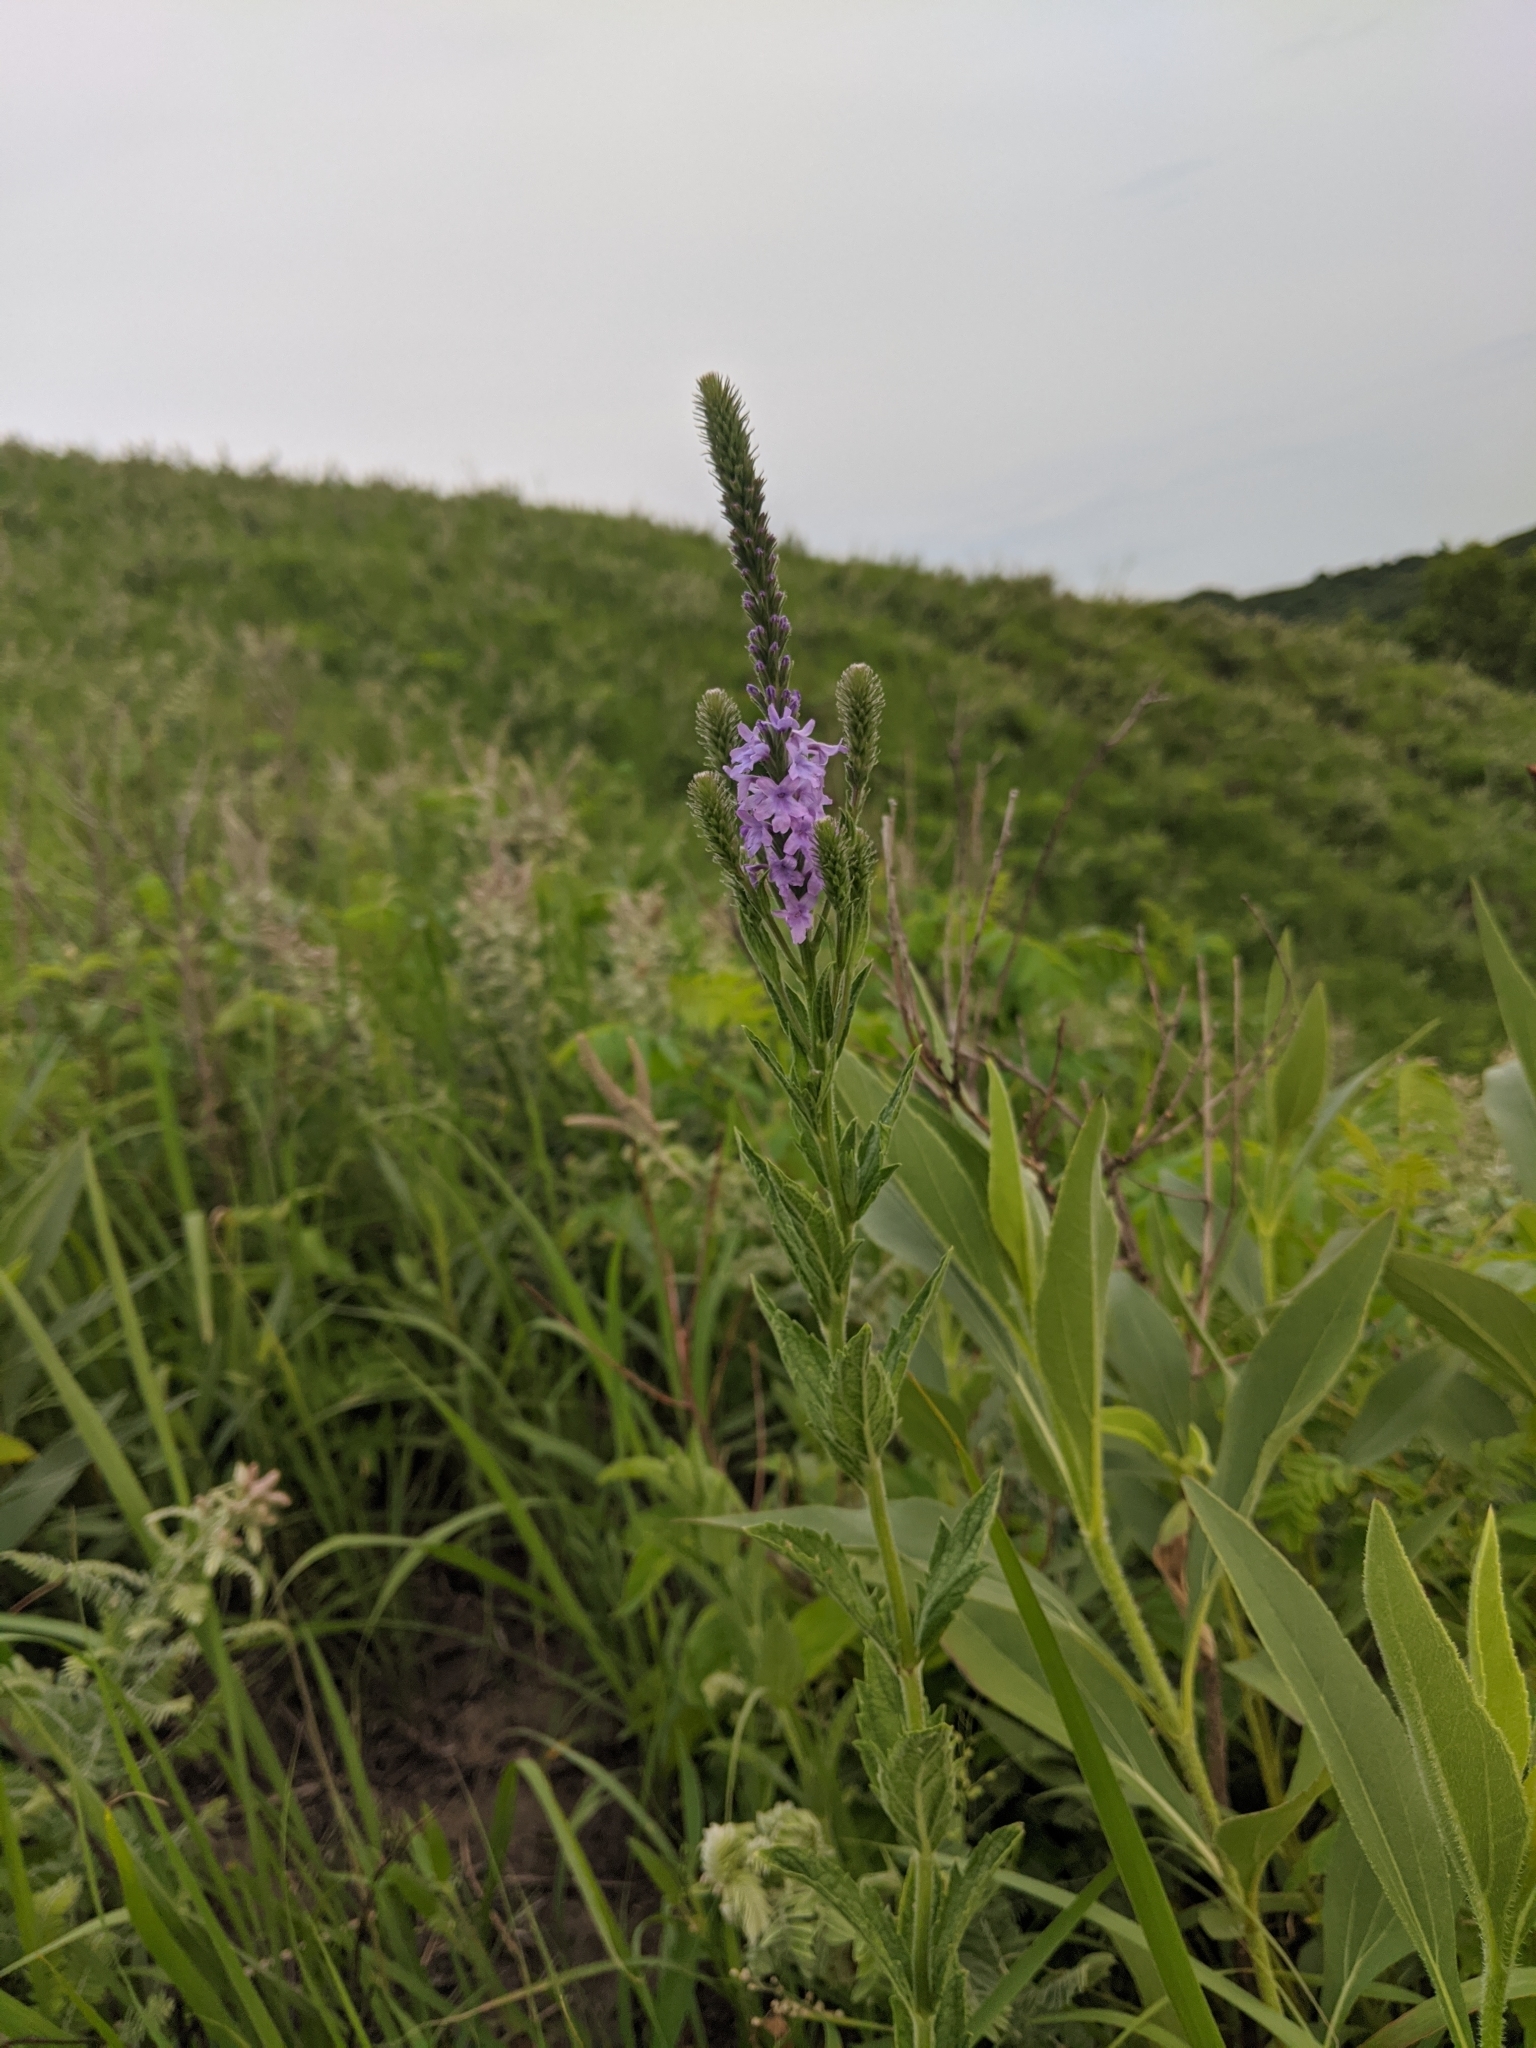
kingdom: Plantae
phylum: Tracheophyta
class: Magnoliopsida
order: Lamiales
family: Verbenaceae
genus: Verbena
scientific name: Verbena stricta
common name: Hoary vervain
